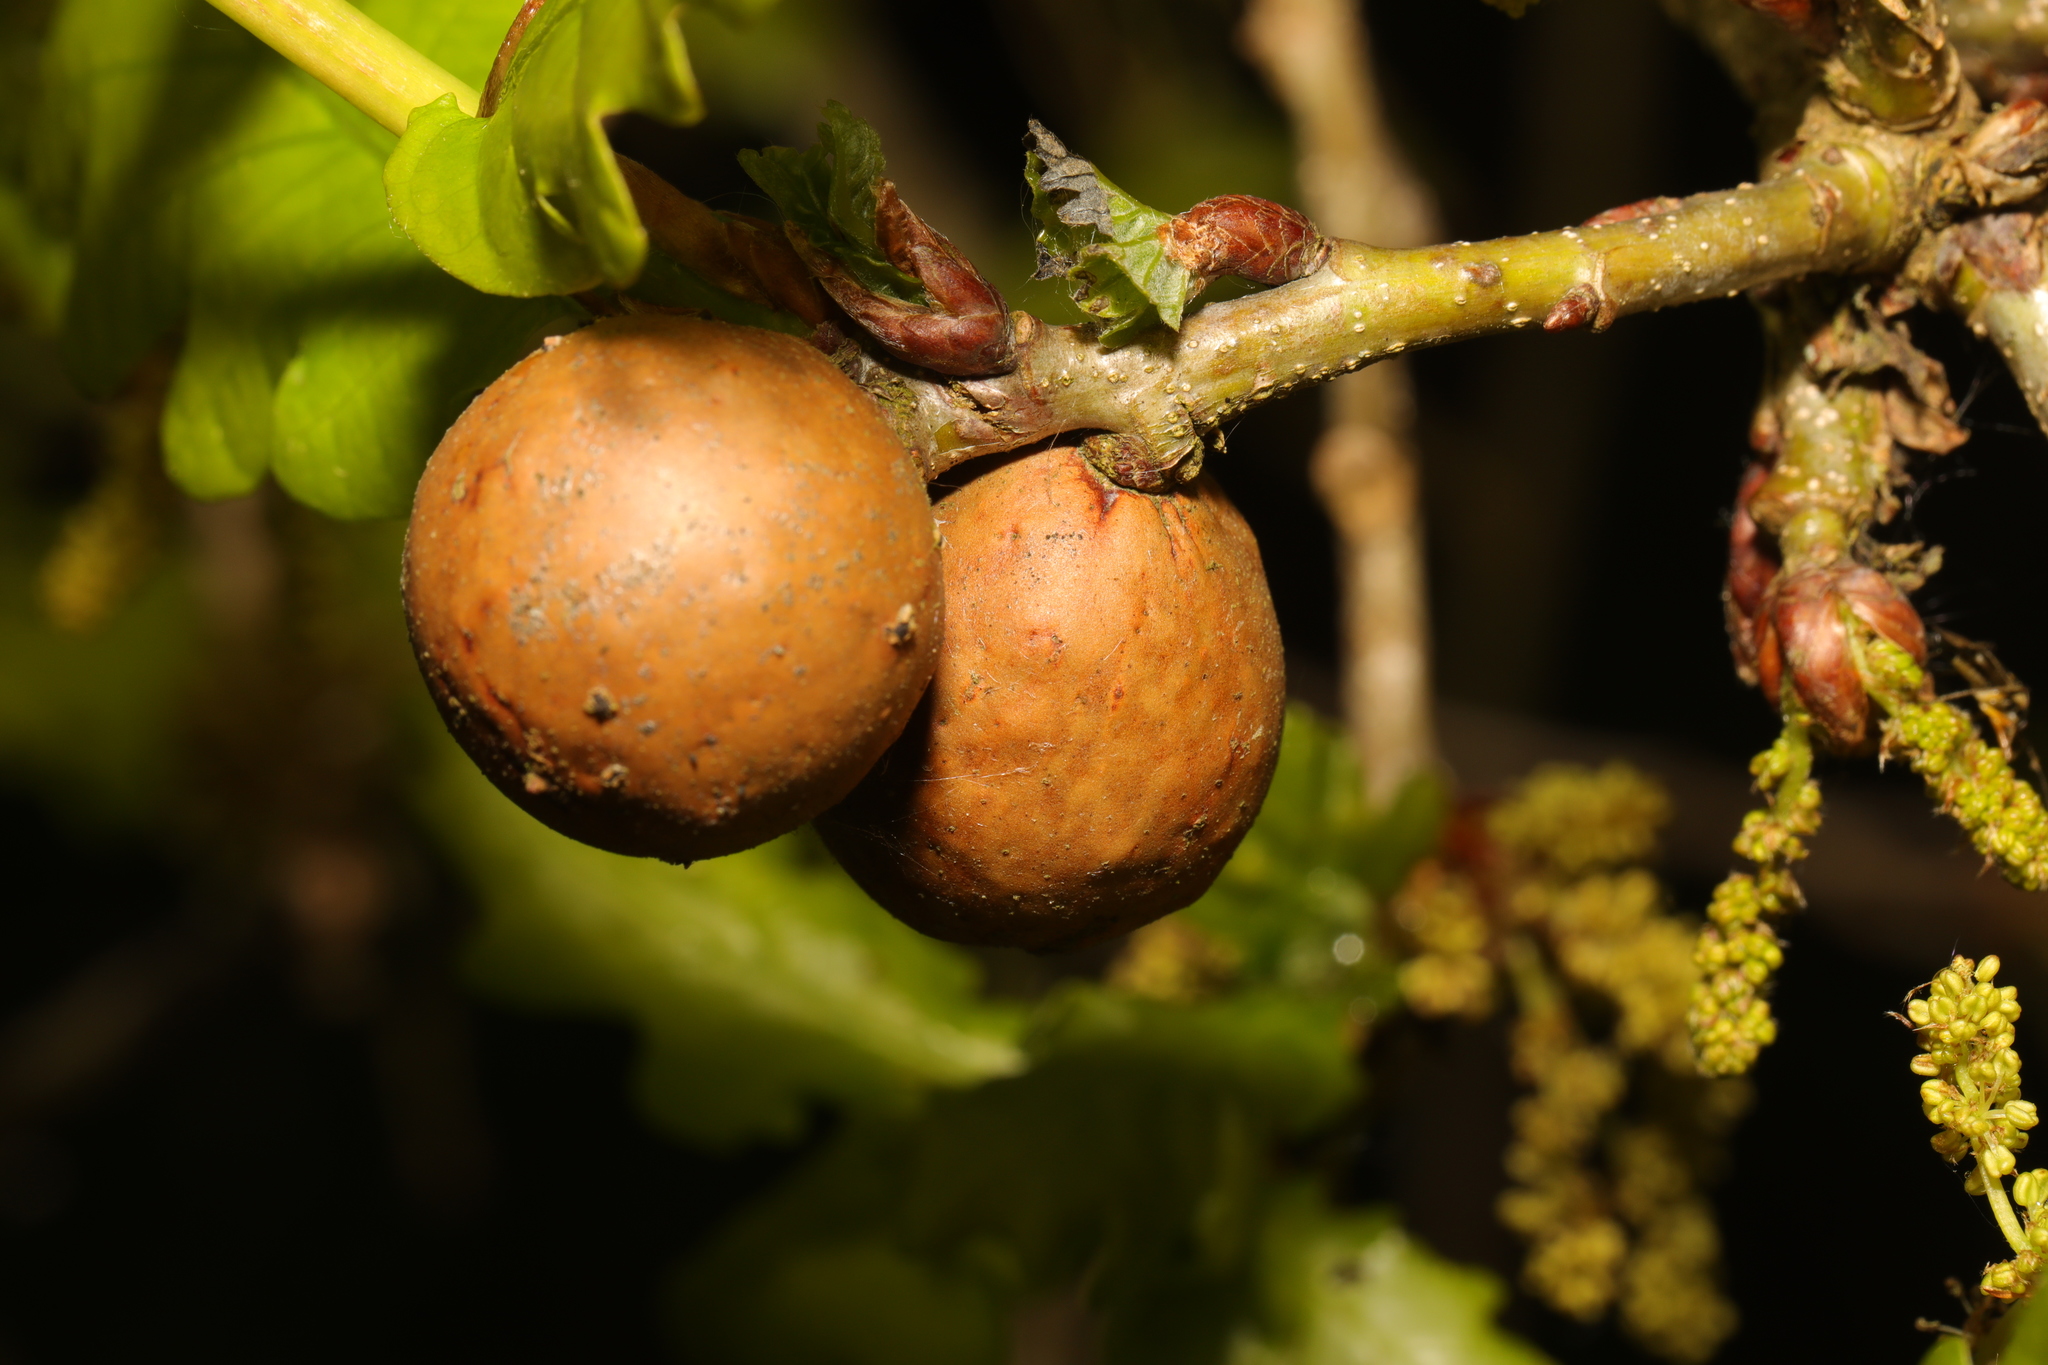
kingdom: Animalia
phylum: Arthropoda
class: Insecta
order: Hymenoptera
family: Cynipidae
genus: Andricus
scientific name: Andricus kollari
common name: Marble gall
